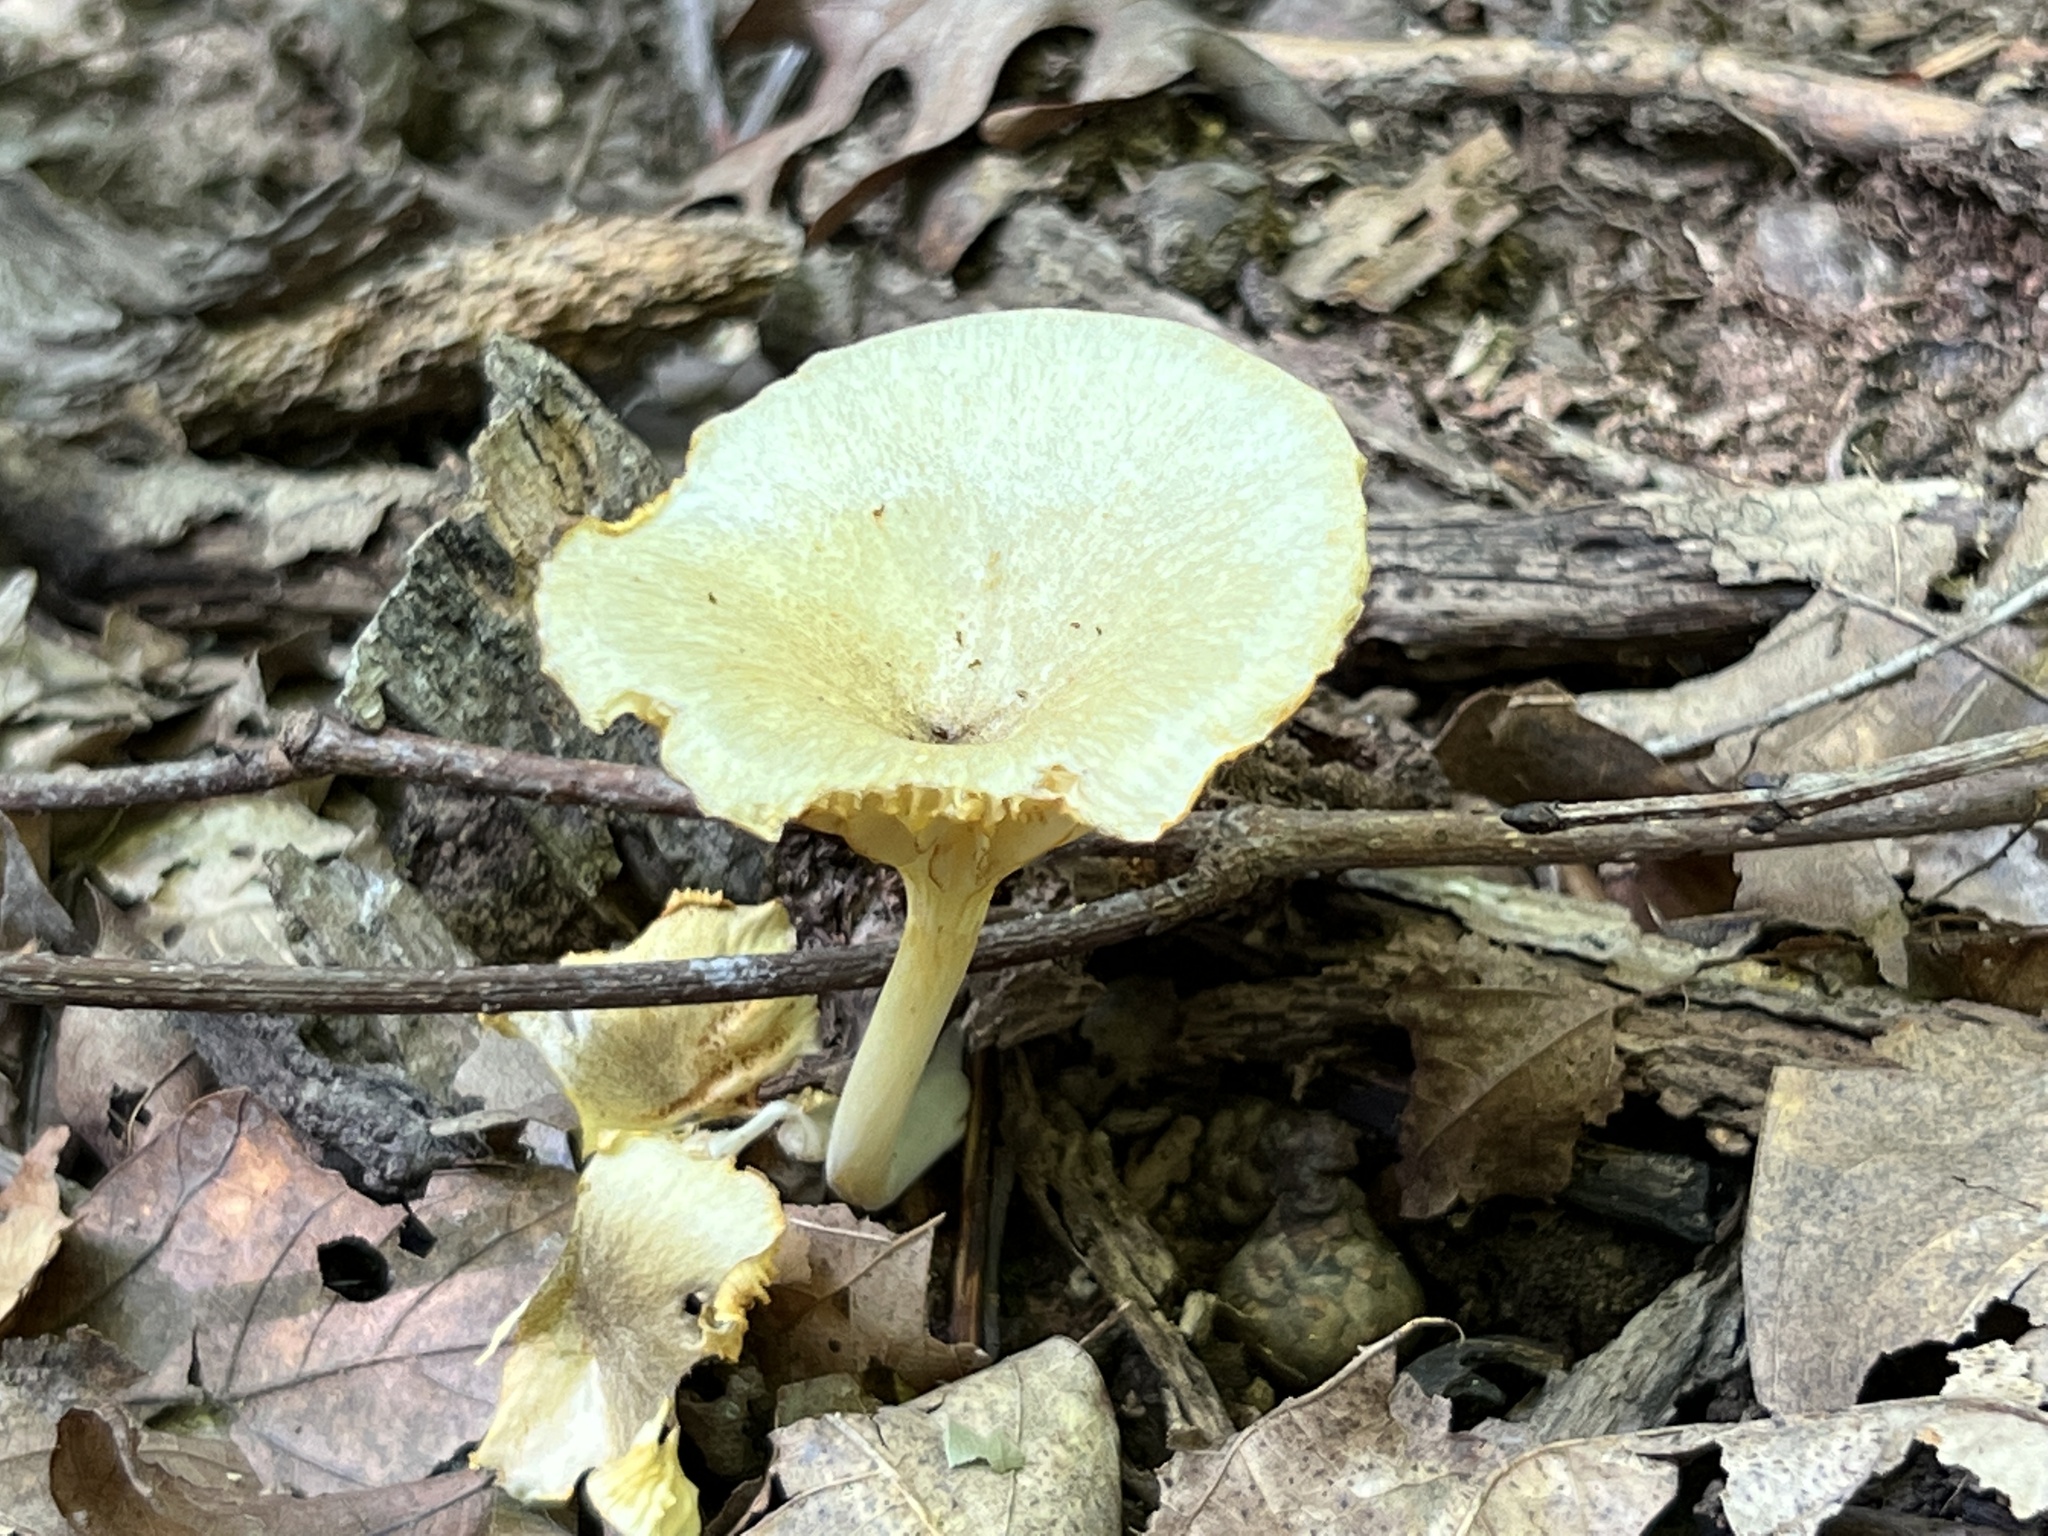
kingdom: Fungi
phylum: Basidiomycota
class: Agaricomycetes
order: Agaricales
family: Marasmiaceae
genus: Gerronema
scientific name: Gerronema strombodes
